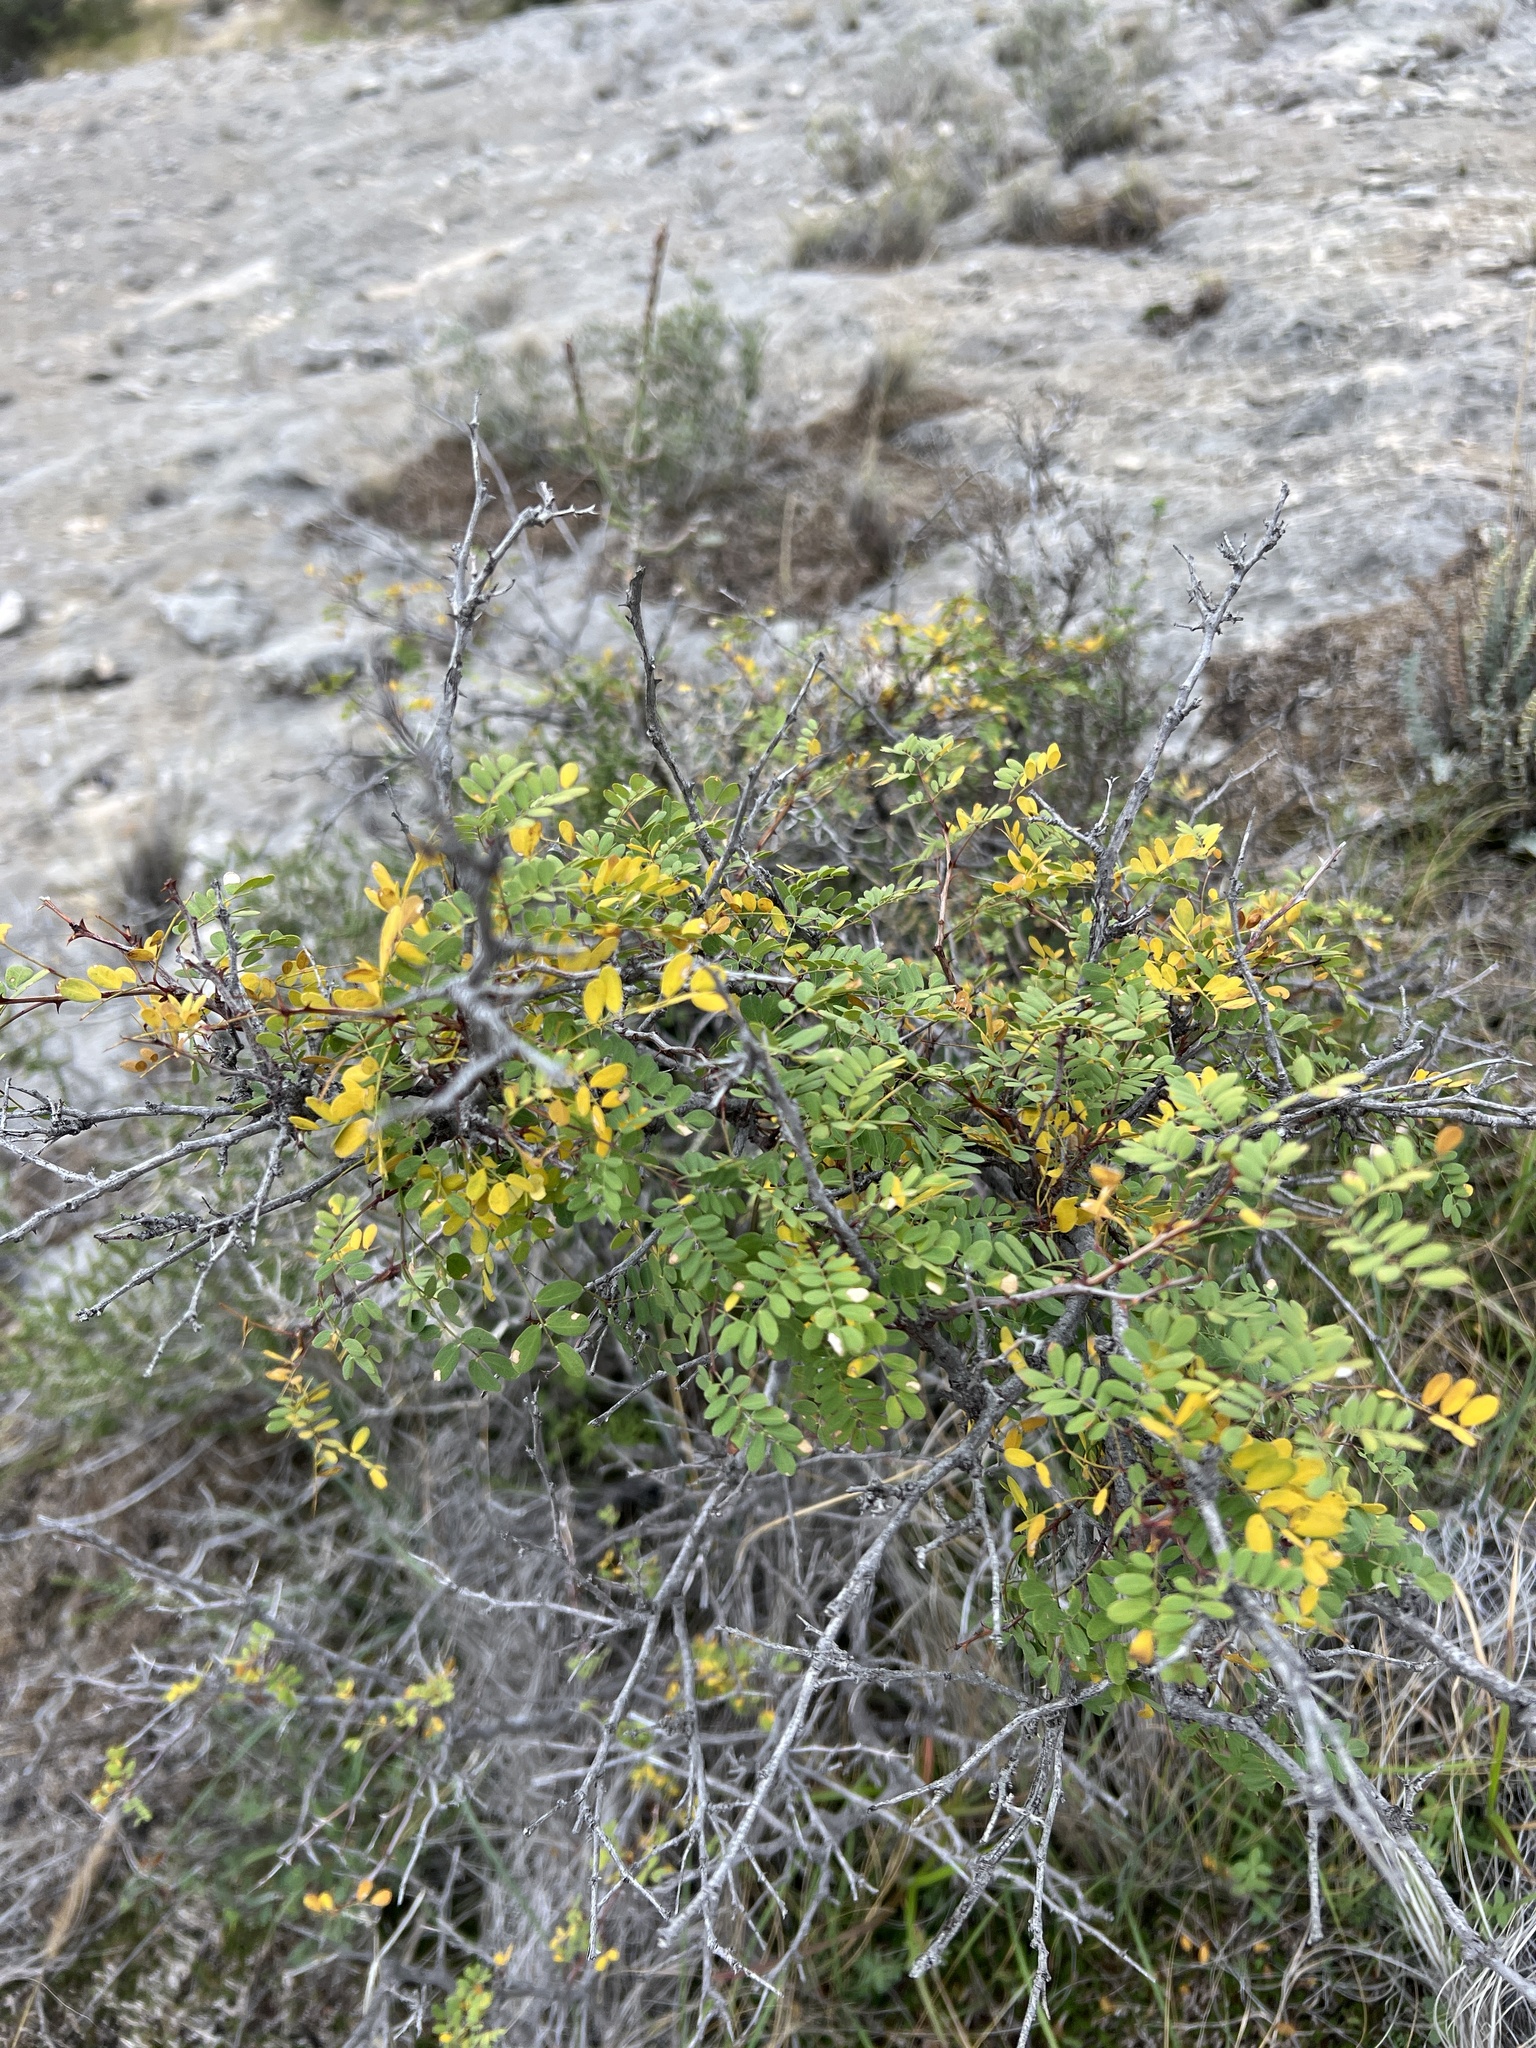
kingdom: Plantae
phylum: Tracheophyta
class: Magnoliopsida
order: Fabales
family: Fabaceae
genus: Senegalia
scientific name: Senegalia roemeriana
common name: Roemer's acacia
